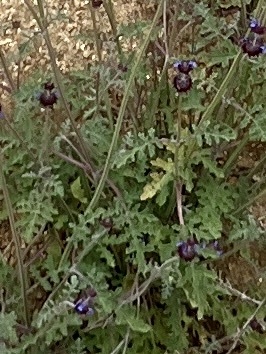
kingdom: Plantae
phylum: Tracheophyta
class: Magnoliopsida
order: Lamiales
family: Lamiaceae
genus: Salvia
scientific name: Salvia columbariae
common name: Chia
